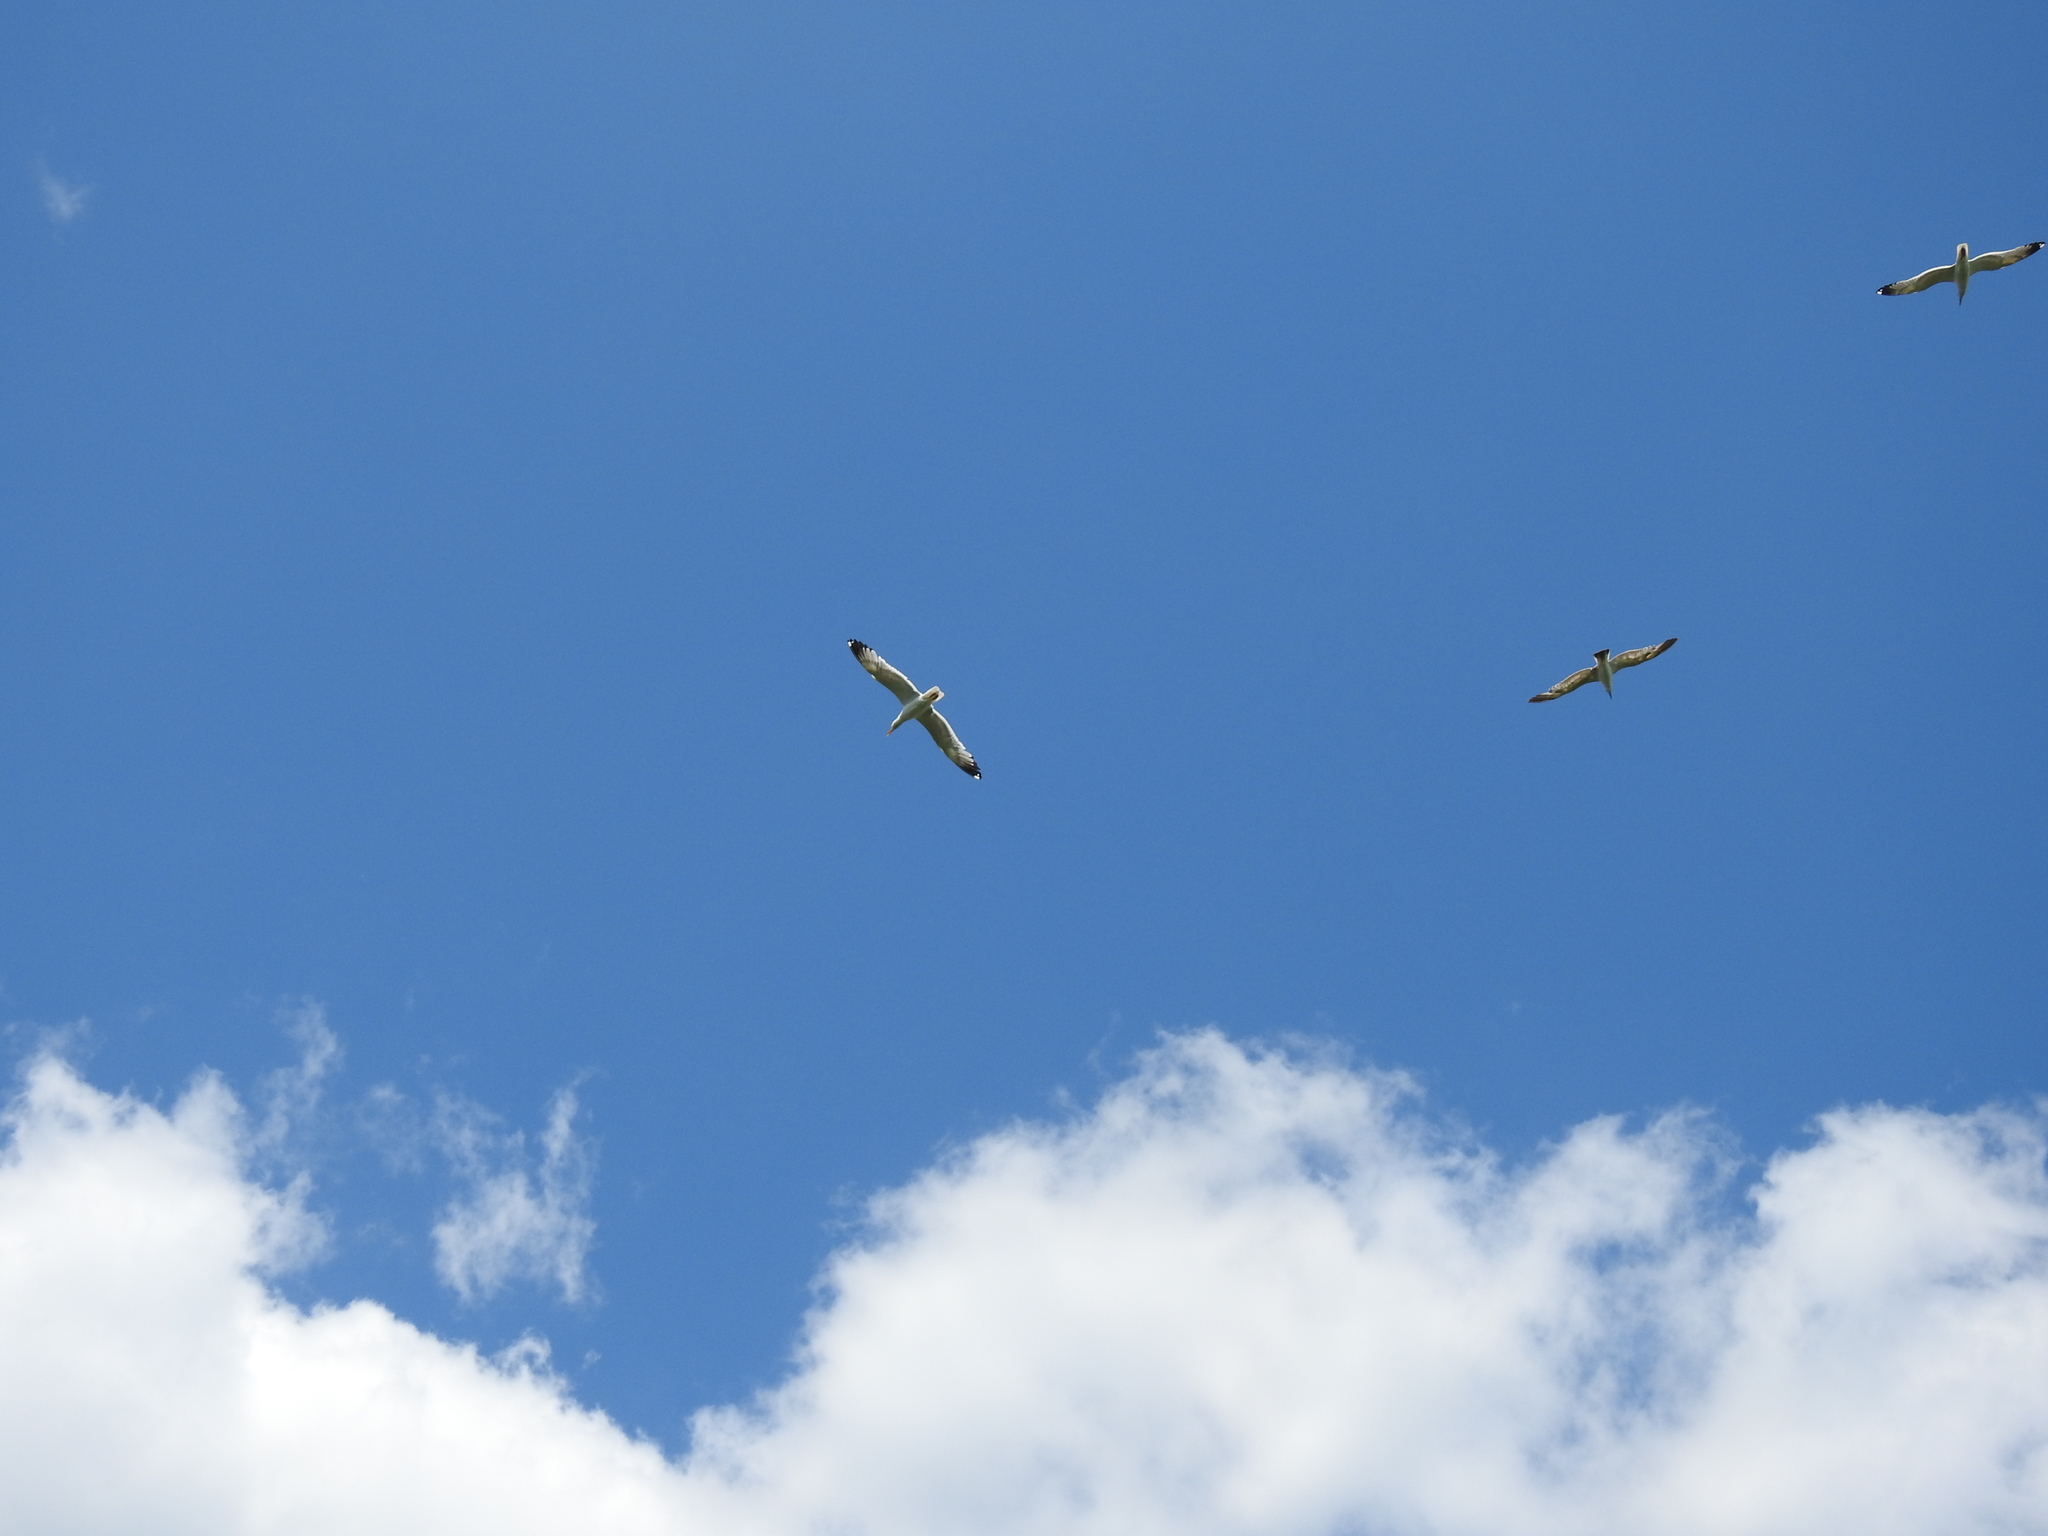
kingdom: Animalia
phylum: Chordata
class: Aves
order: Charadriiformes
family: Laridae
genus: Larus
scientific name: Larus fuscus
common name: Lesser black-backed gull
